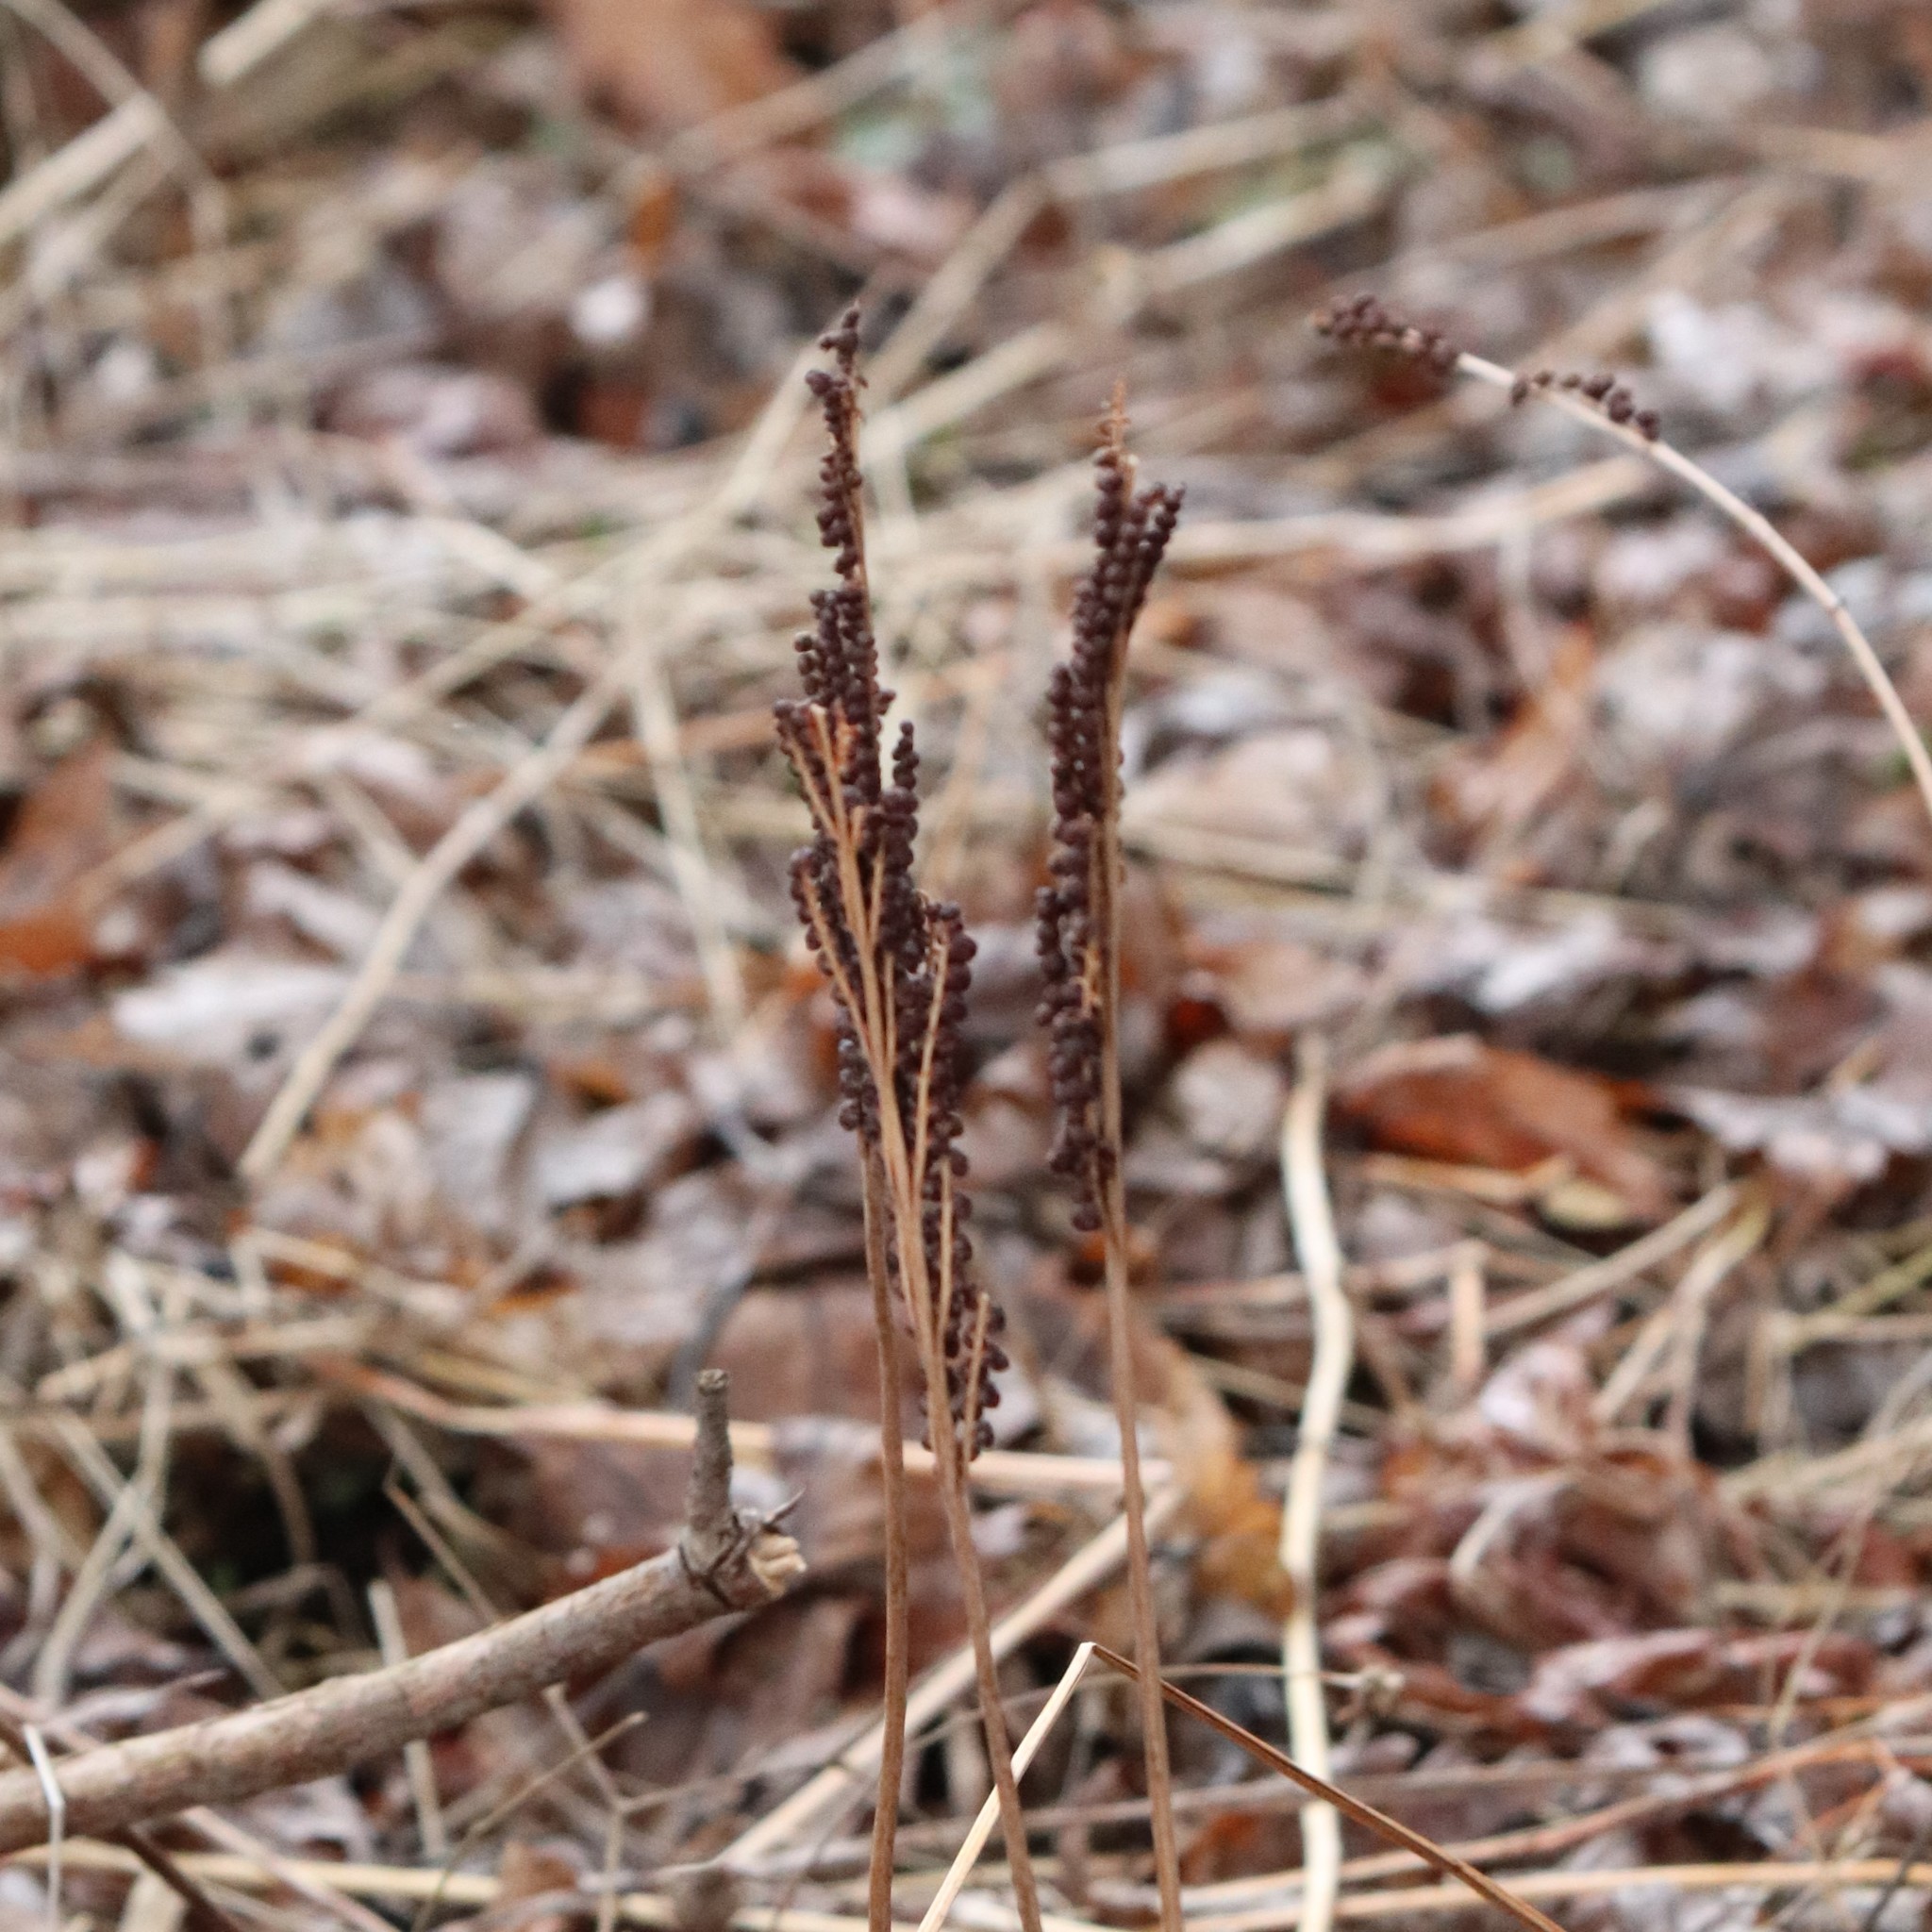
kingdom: Plantae
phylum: Tracheophyta
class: Polypodiopsida
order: Polypodiales
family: Onocleaceae
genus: Onoclea
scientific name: Onoclea sensibilis
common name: Sensitive fern
